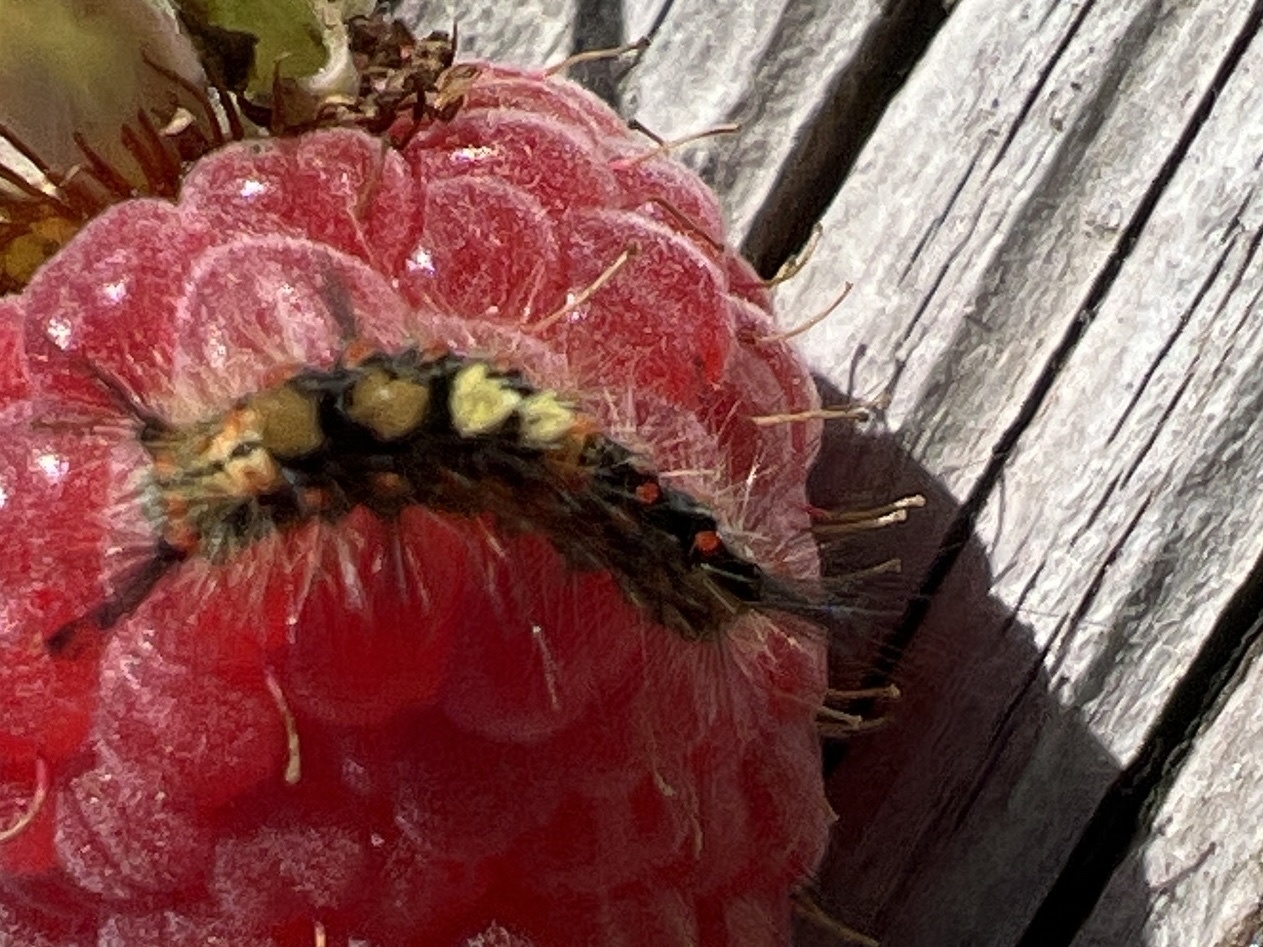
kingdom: Animalia
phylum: Arthropoda
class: Insecta
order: Lepidoptera
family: Erebidae
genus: Orgyia
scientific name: Orgyia antiqua
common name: Vapourer
